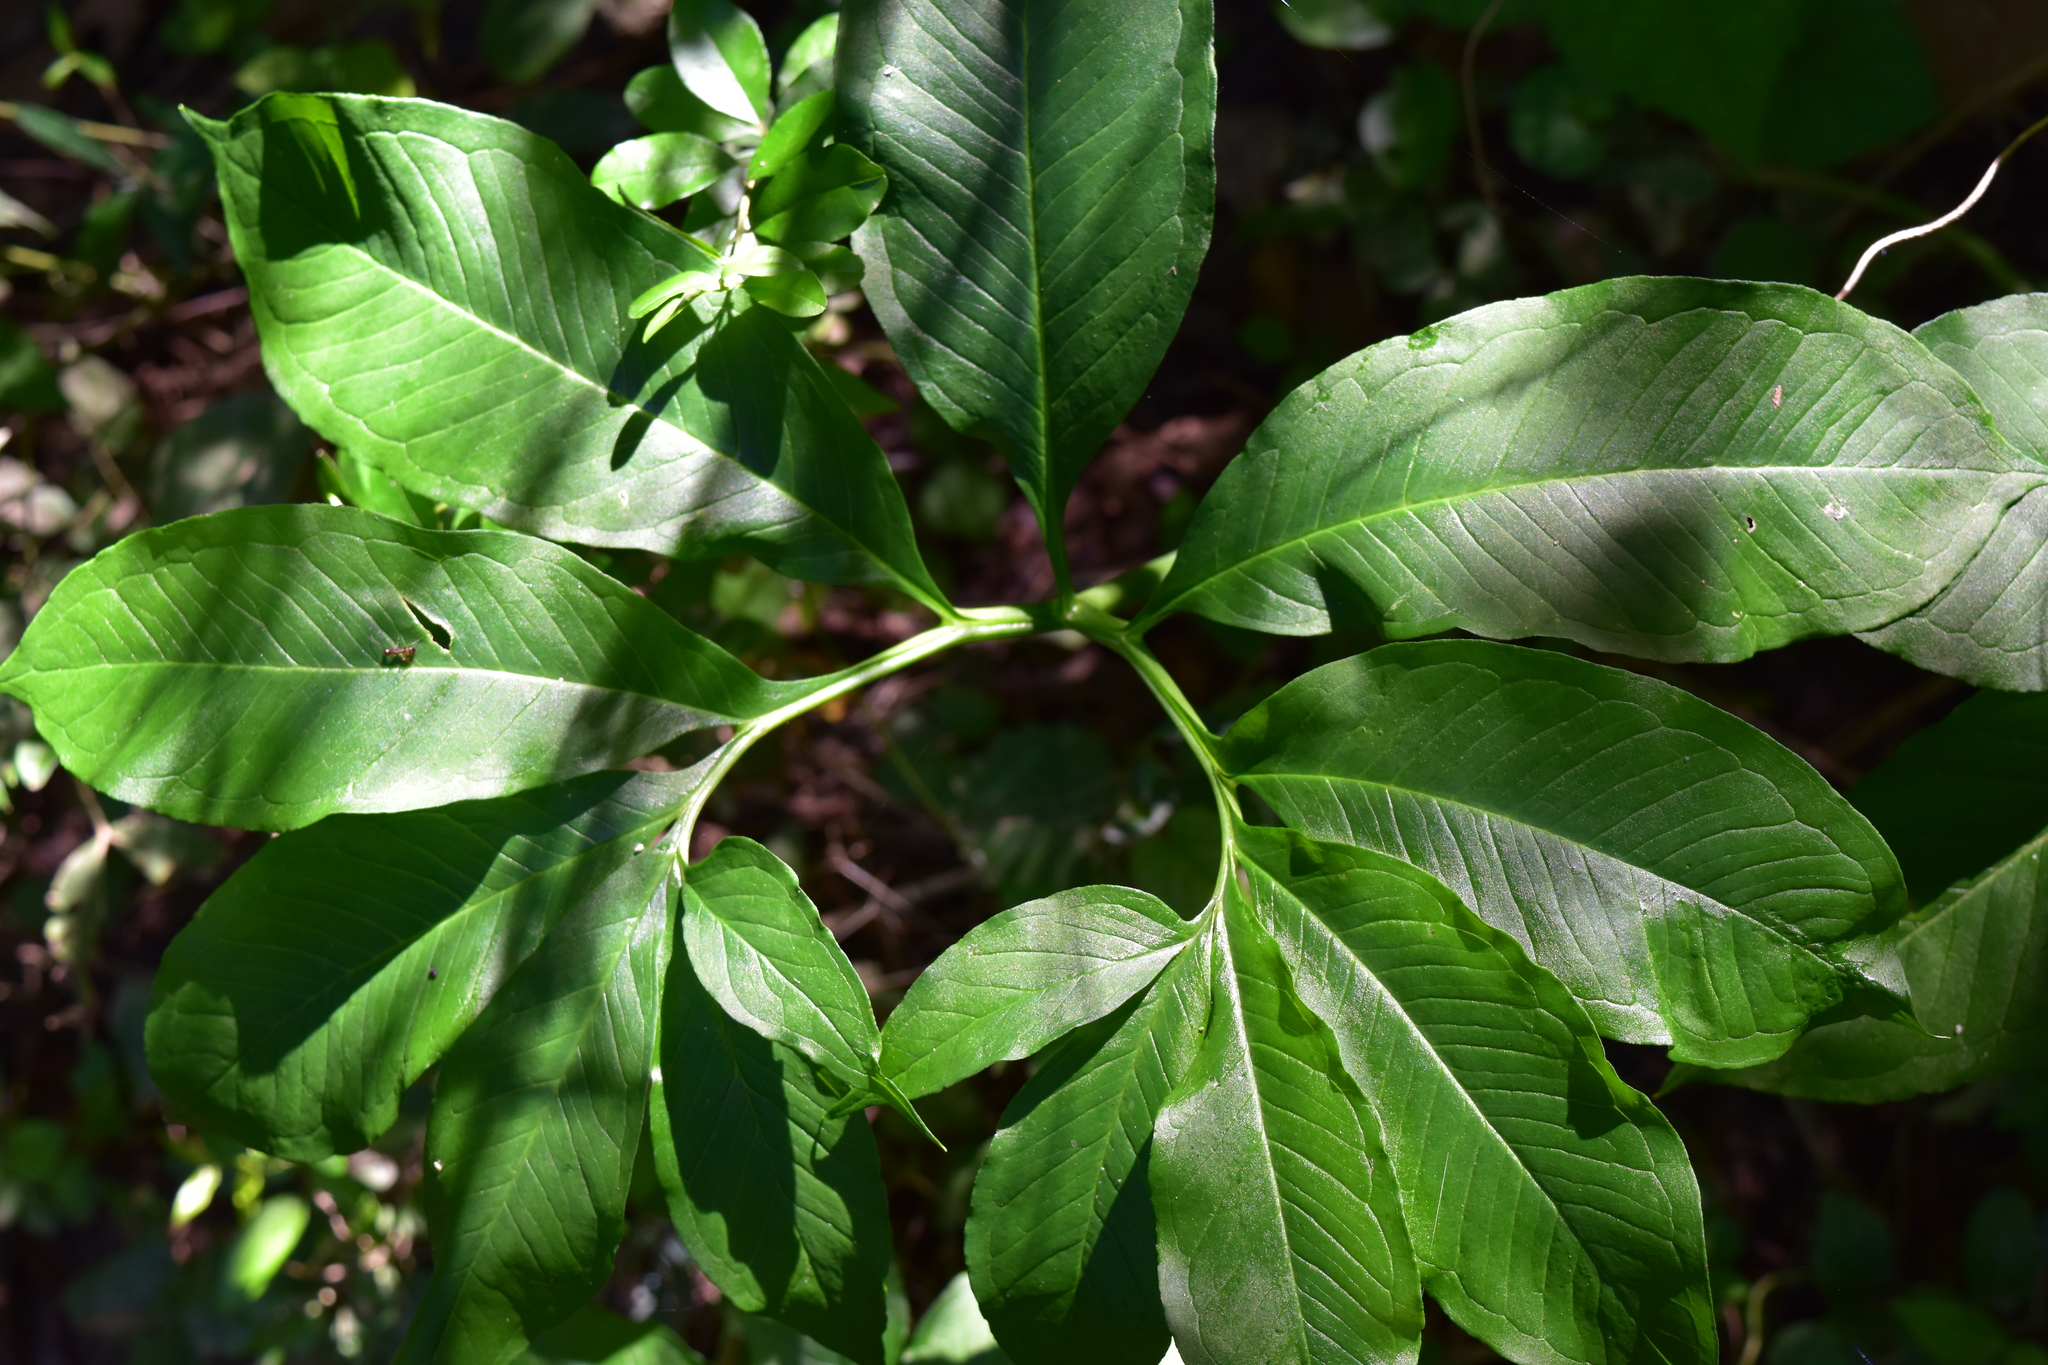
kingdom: Plantae
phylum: Tracheophyta
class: Liliopsida
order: Alismatales
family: Araceae
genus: Arisaema
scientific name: Arisaema dracontium
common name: Dragon-arum
